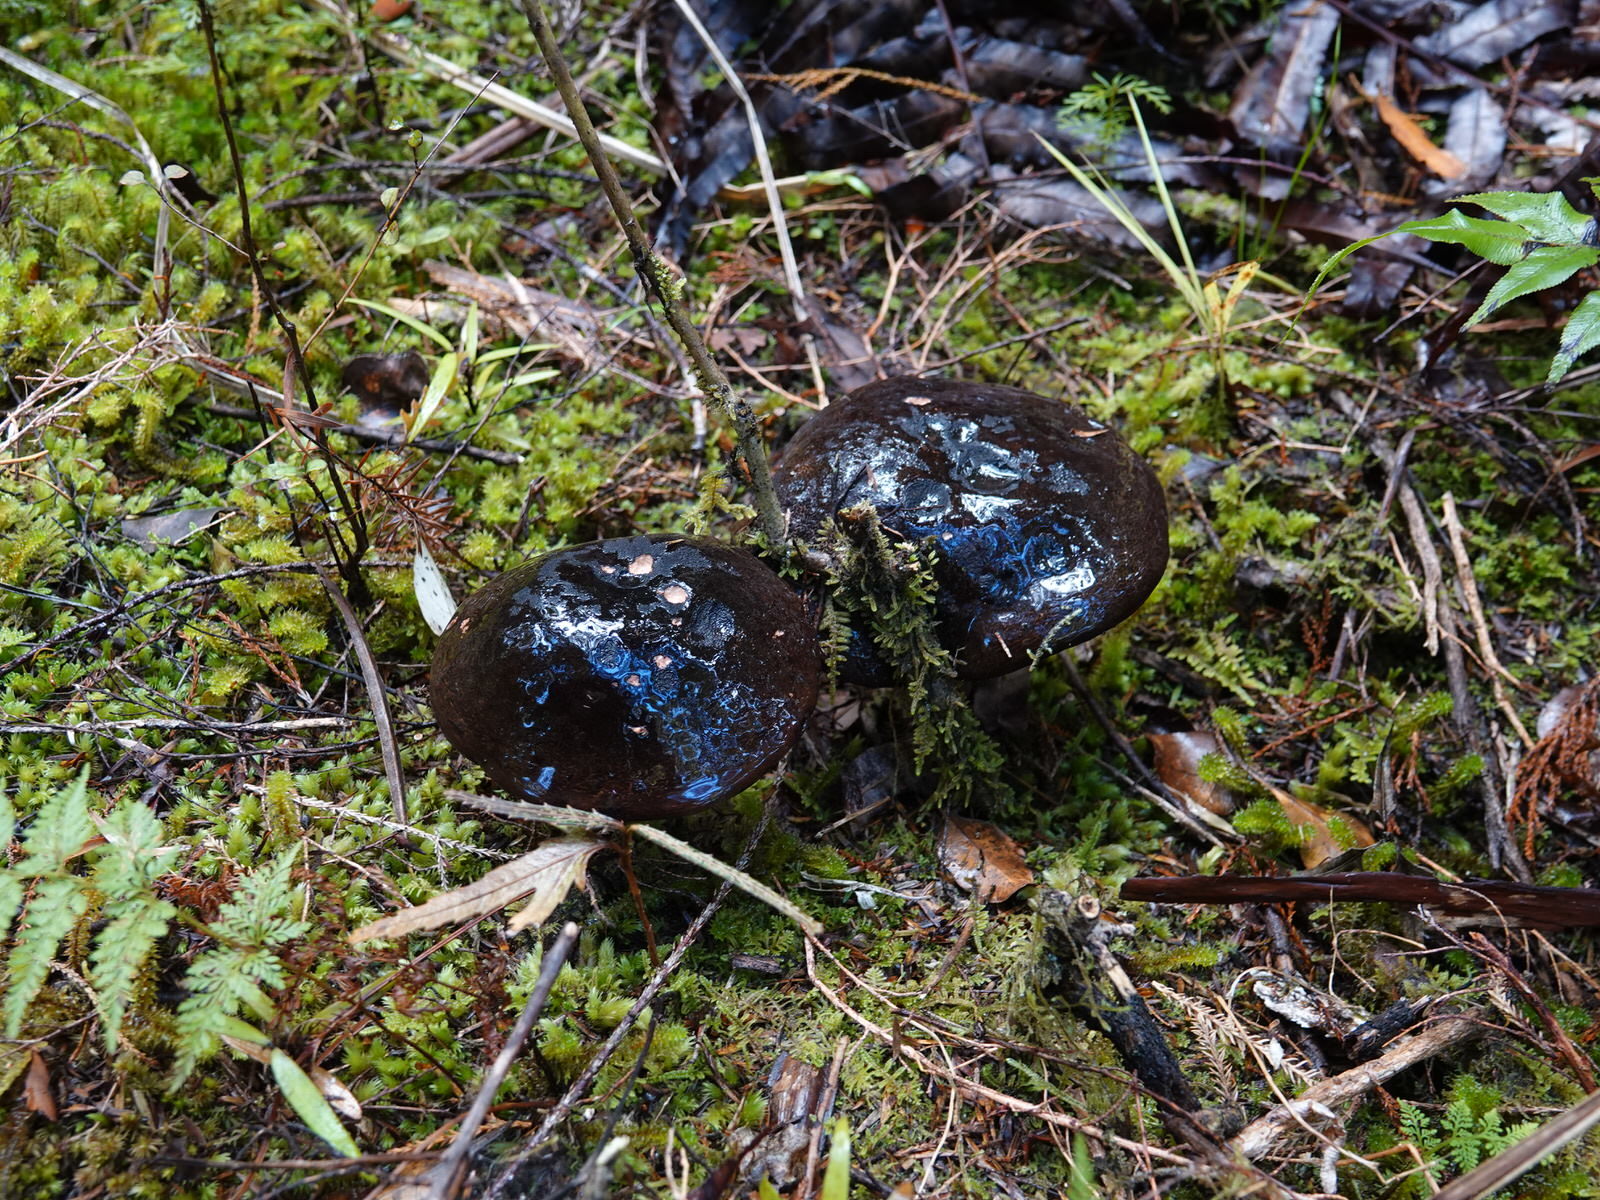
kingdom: Fungi
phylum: Basidiomycota
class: Agaricomycetes
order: Boletales
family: Boletaceae
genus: Porphyrellus
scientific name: Porphyrellus formosus
